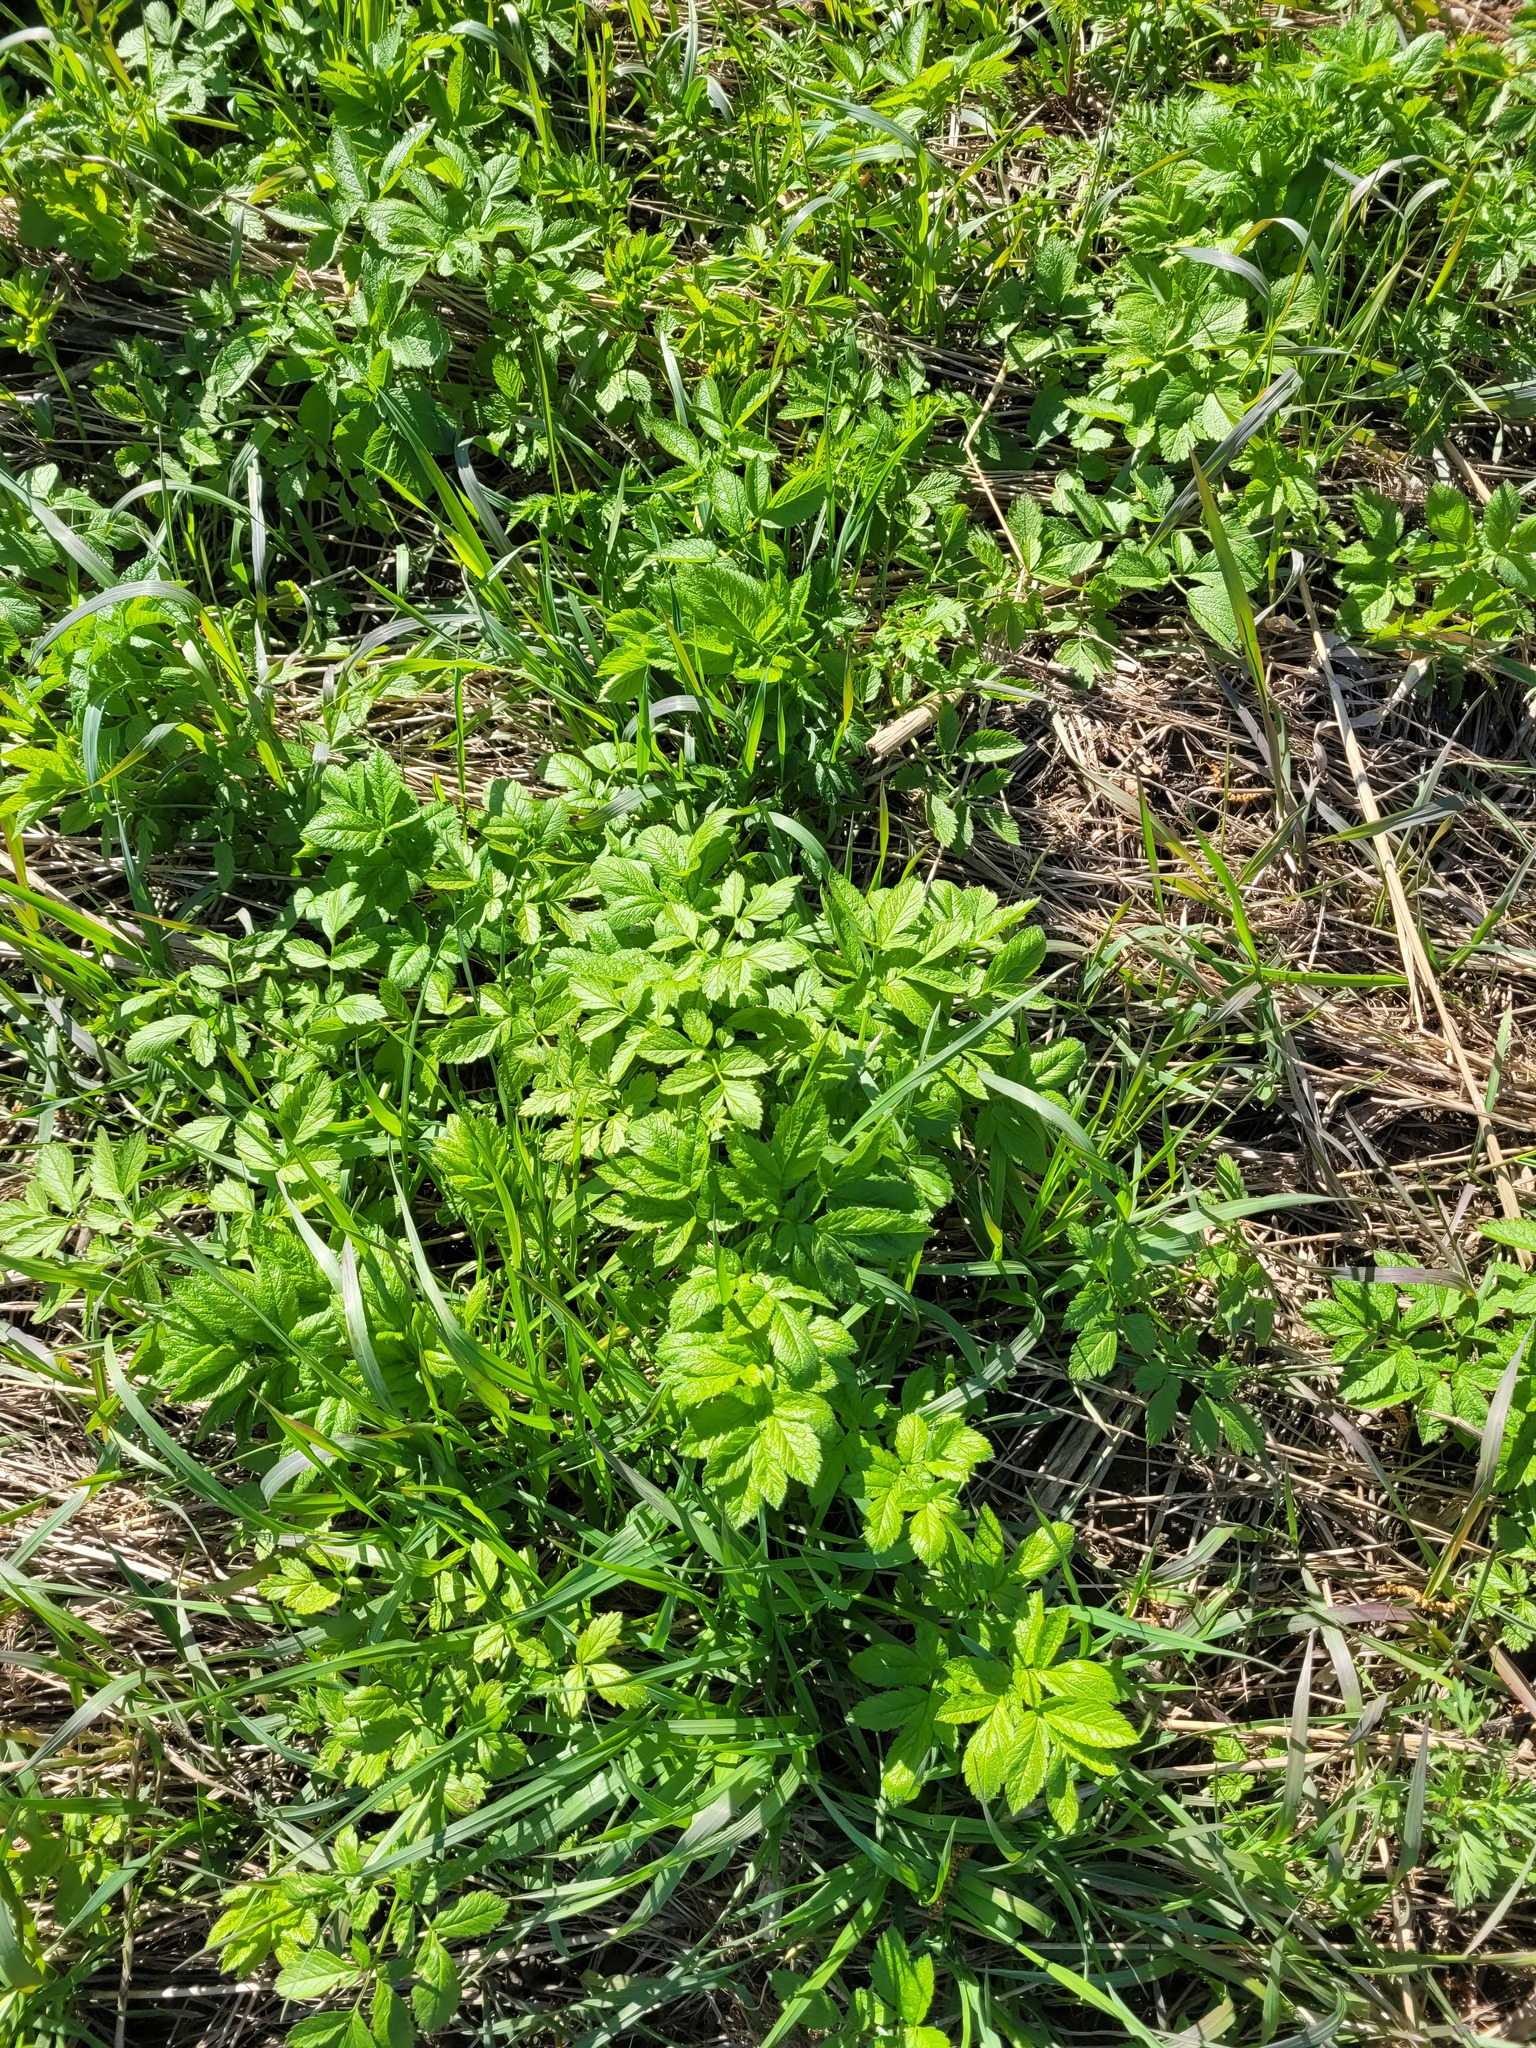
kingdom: Plantae
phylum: Tracheophyta
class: Magnoliopsida
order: Apiales
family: Apiaceae
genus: Chaerophyllum
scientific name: Chaerophyllum aromaticum
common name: Broadleaf chervil
